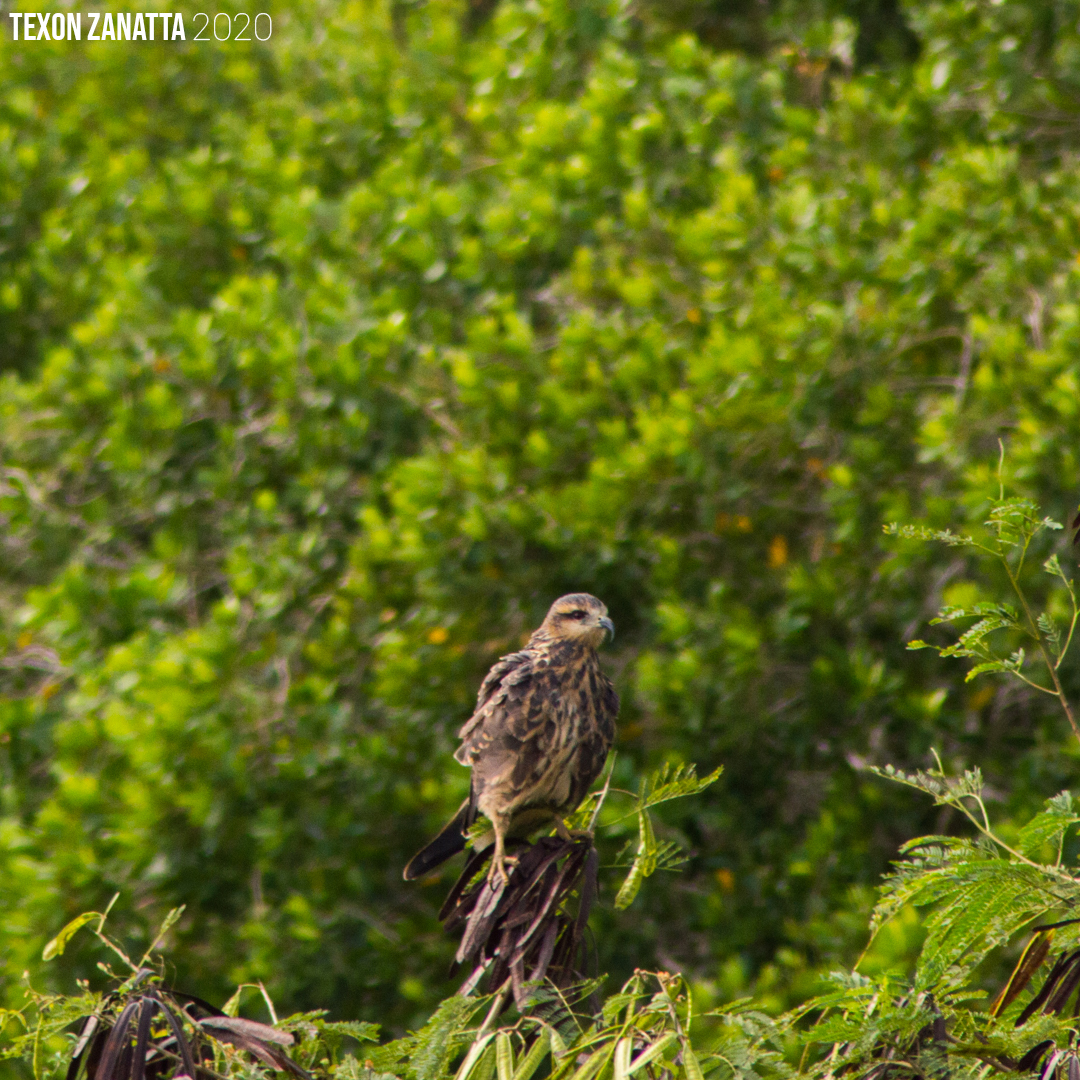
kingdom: Animalia
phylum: Chordata
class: Aves
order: Accipitriformes
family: Accipitridae
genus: Rostrhamus
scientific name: Rostrhamus sociabilis
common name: Snail kite
